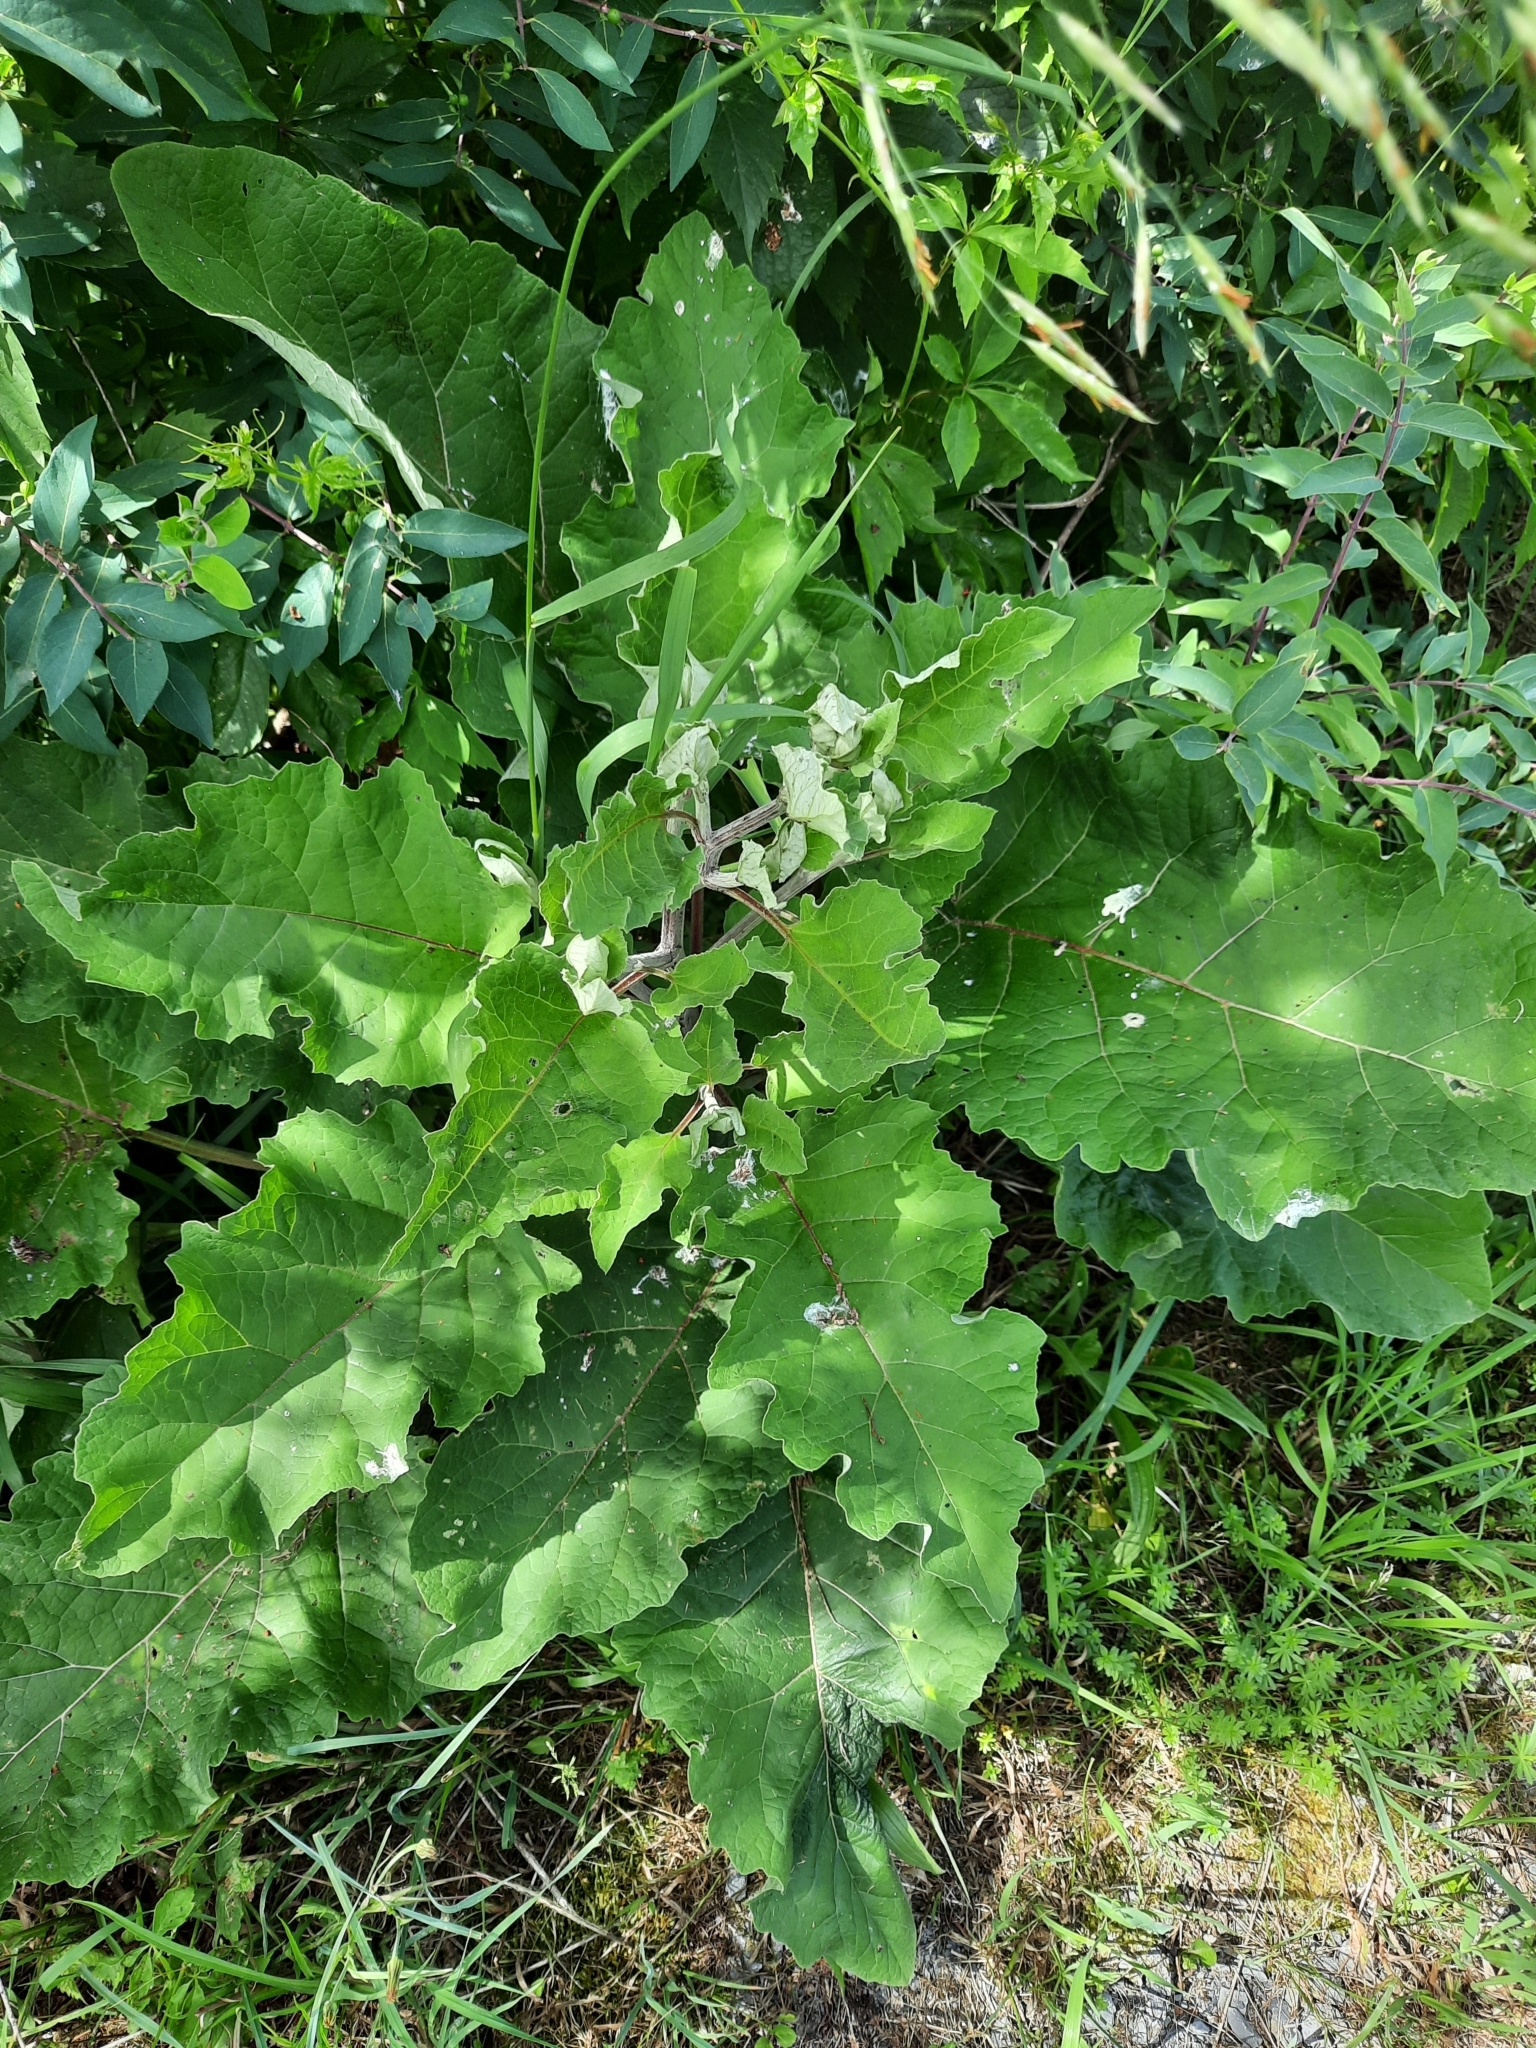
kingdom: Plantae
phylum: Tracheophyta
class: Magnoliopsida
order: Asterales
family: Asteraceae
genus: Arctium
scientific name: Arctium minus
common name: Lesser burdock
